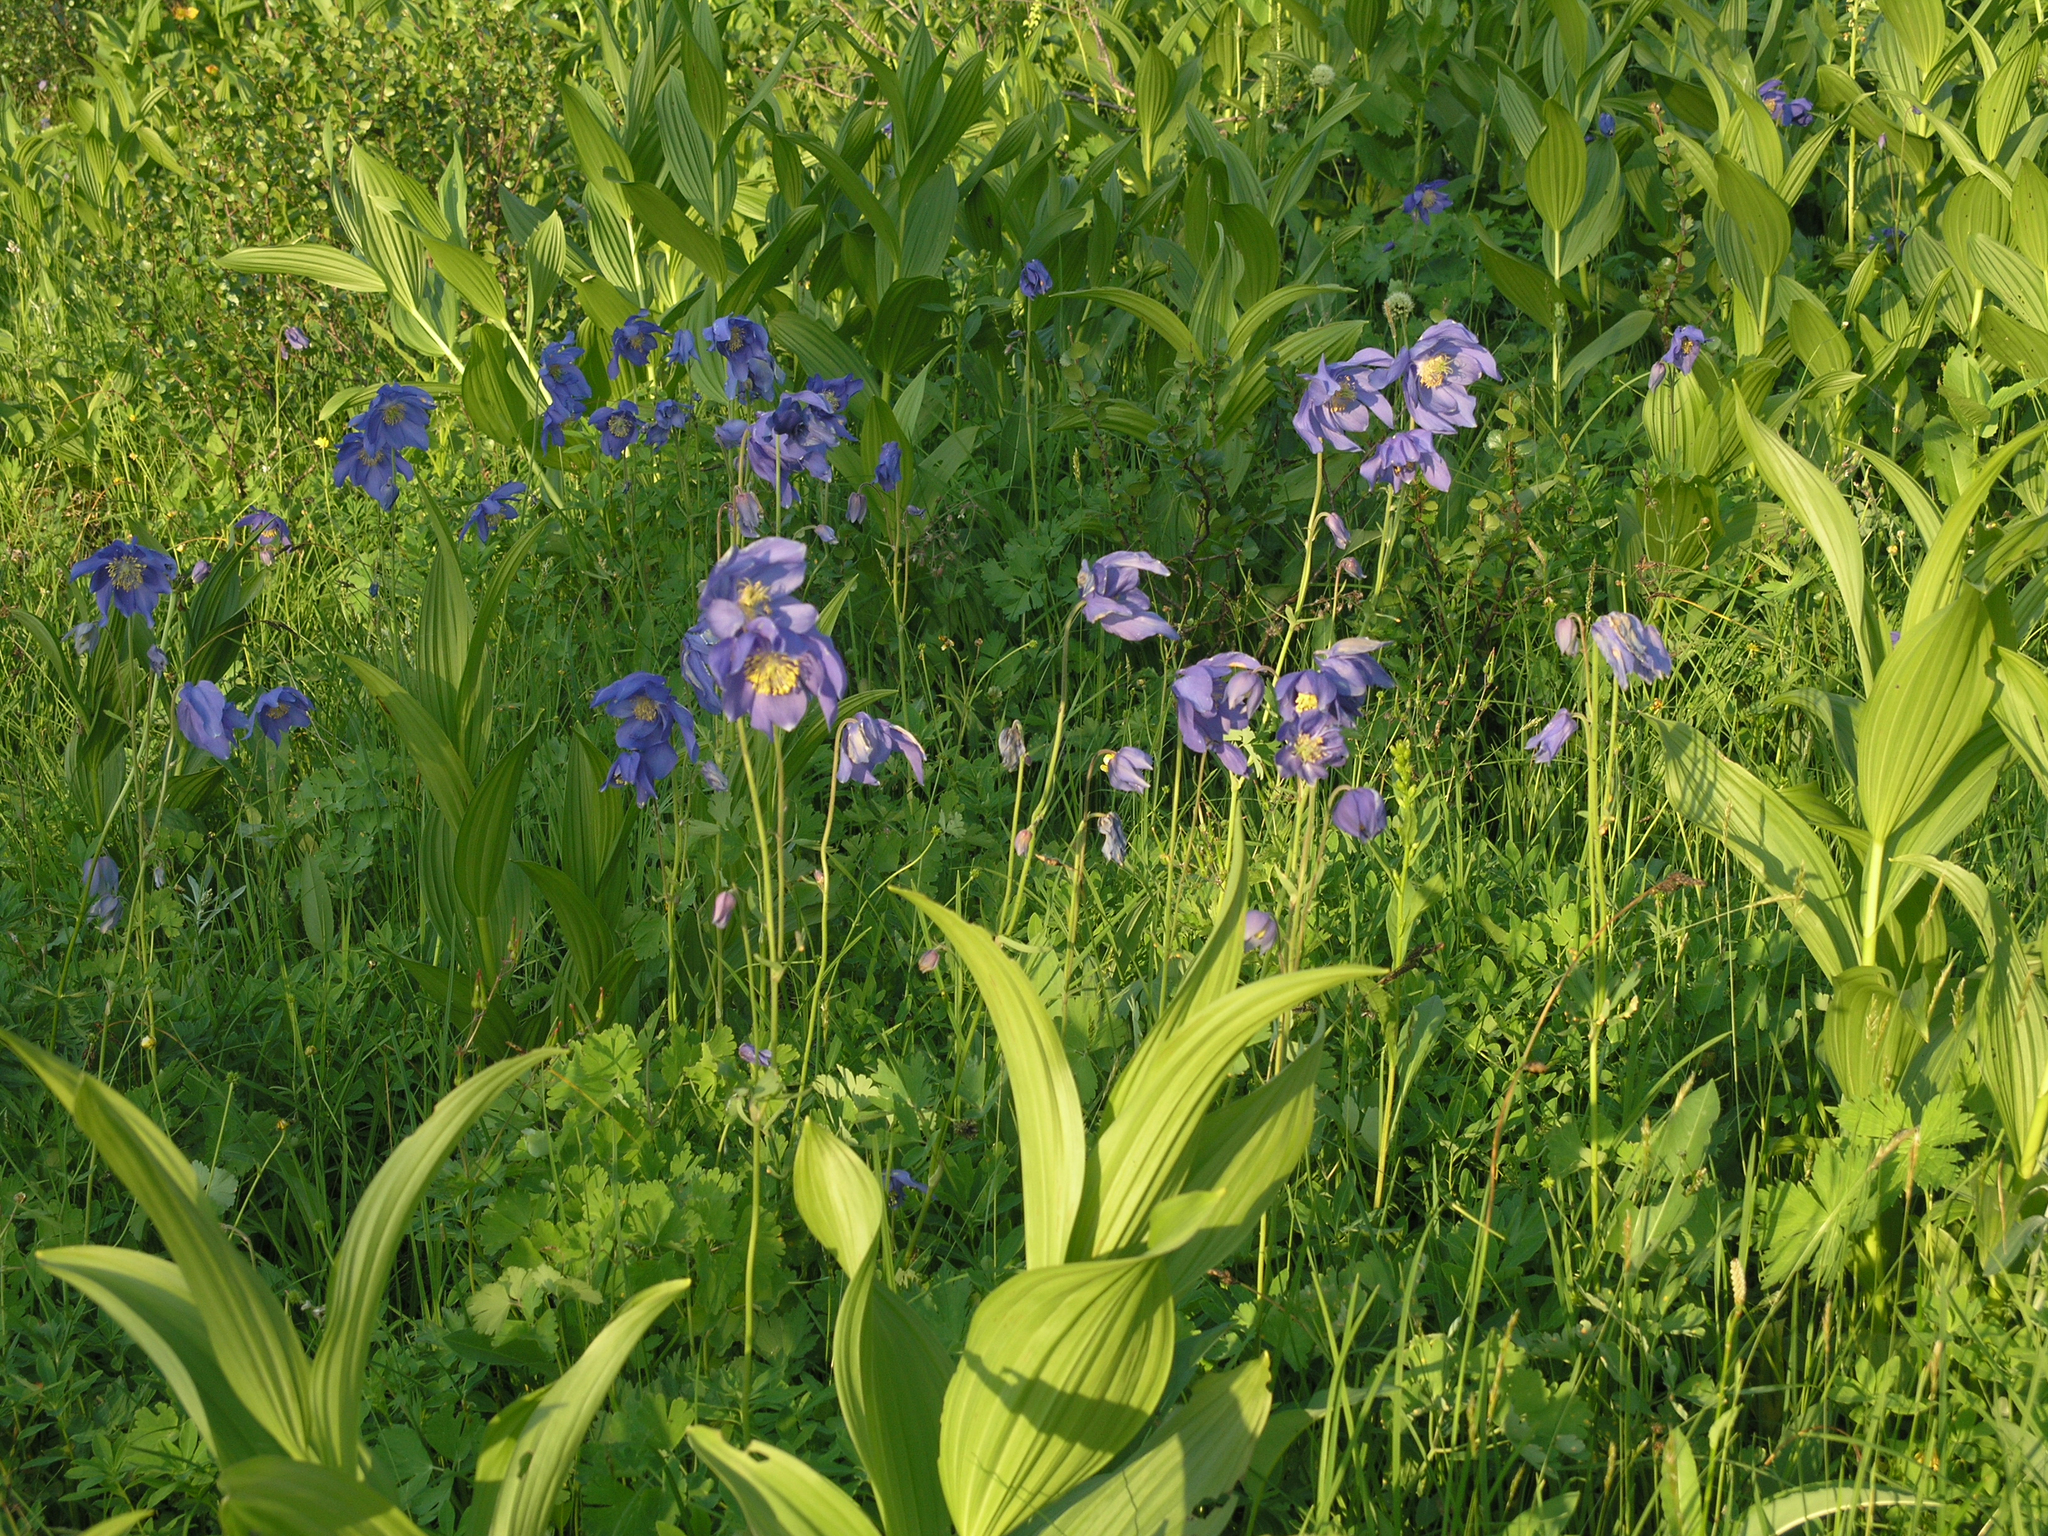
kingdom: Plantae
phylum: Tracheophyta
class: Magnoliopsida
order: Ranunculales
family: Ranunculaceae
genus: Aquilegia
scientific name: Aquilegia glandulosa
